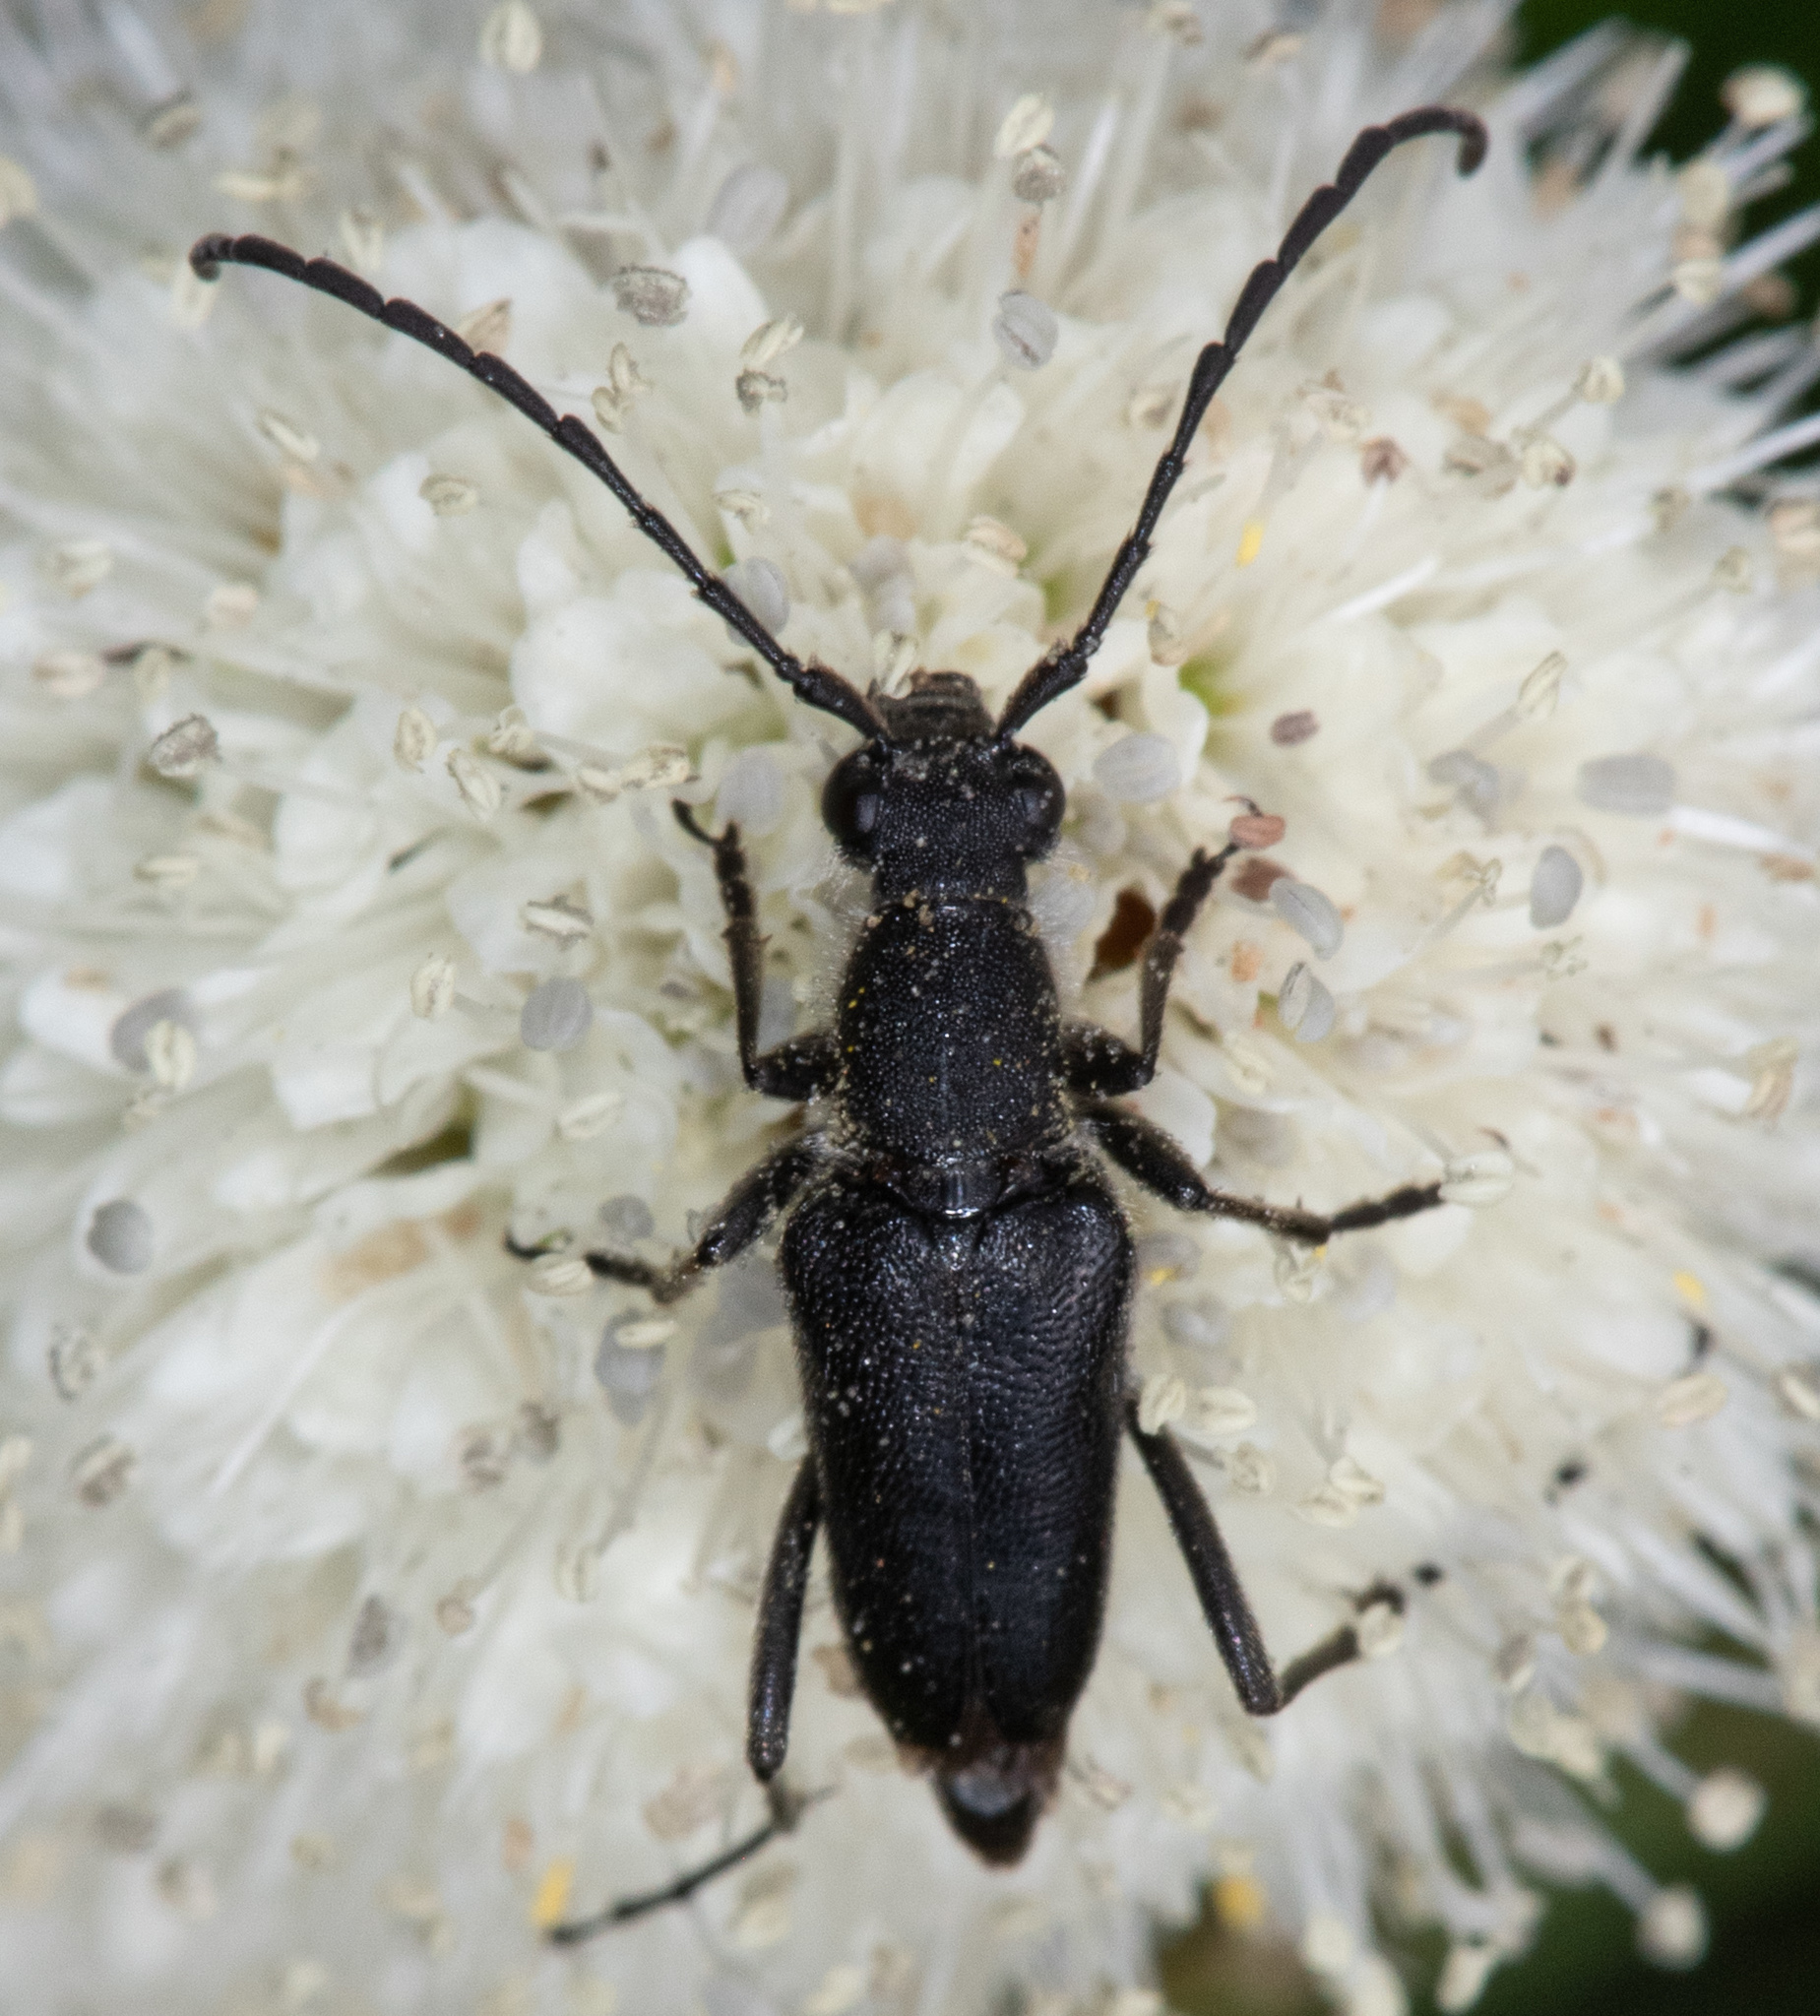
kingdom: Animalia
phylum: Arthropoda
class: Insecta
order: Coleoptera
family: Cerambycidae
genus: Anastrangalia
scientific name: Anastrangalia laetifica
